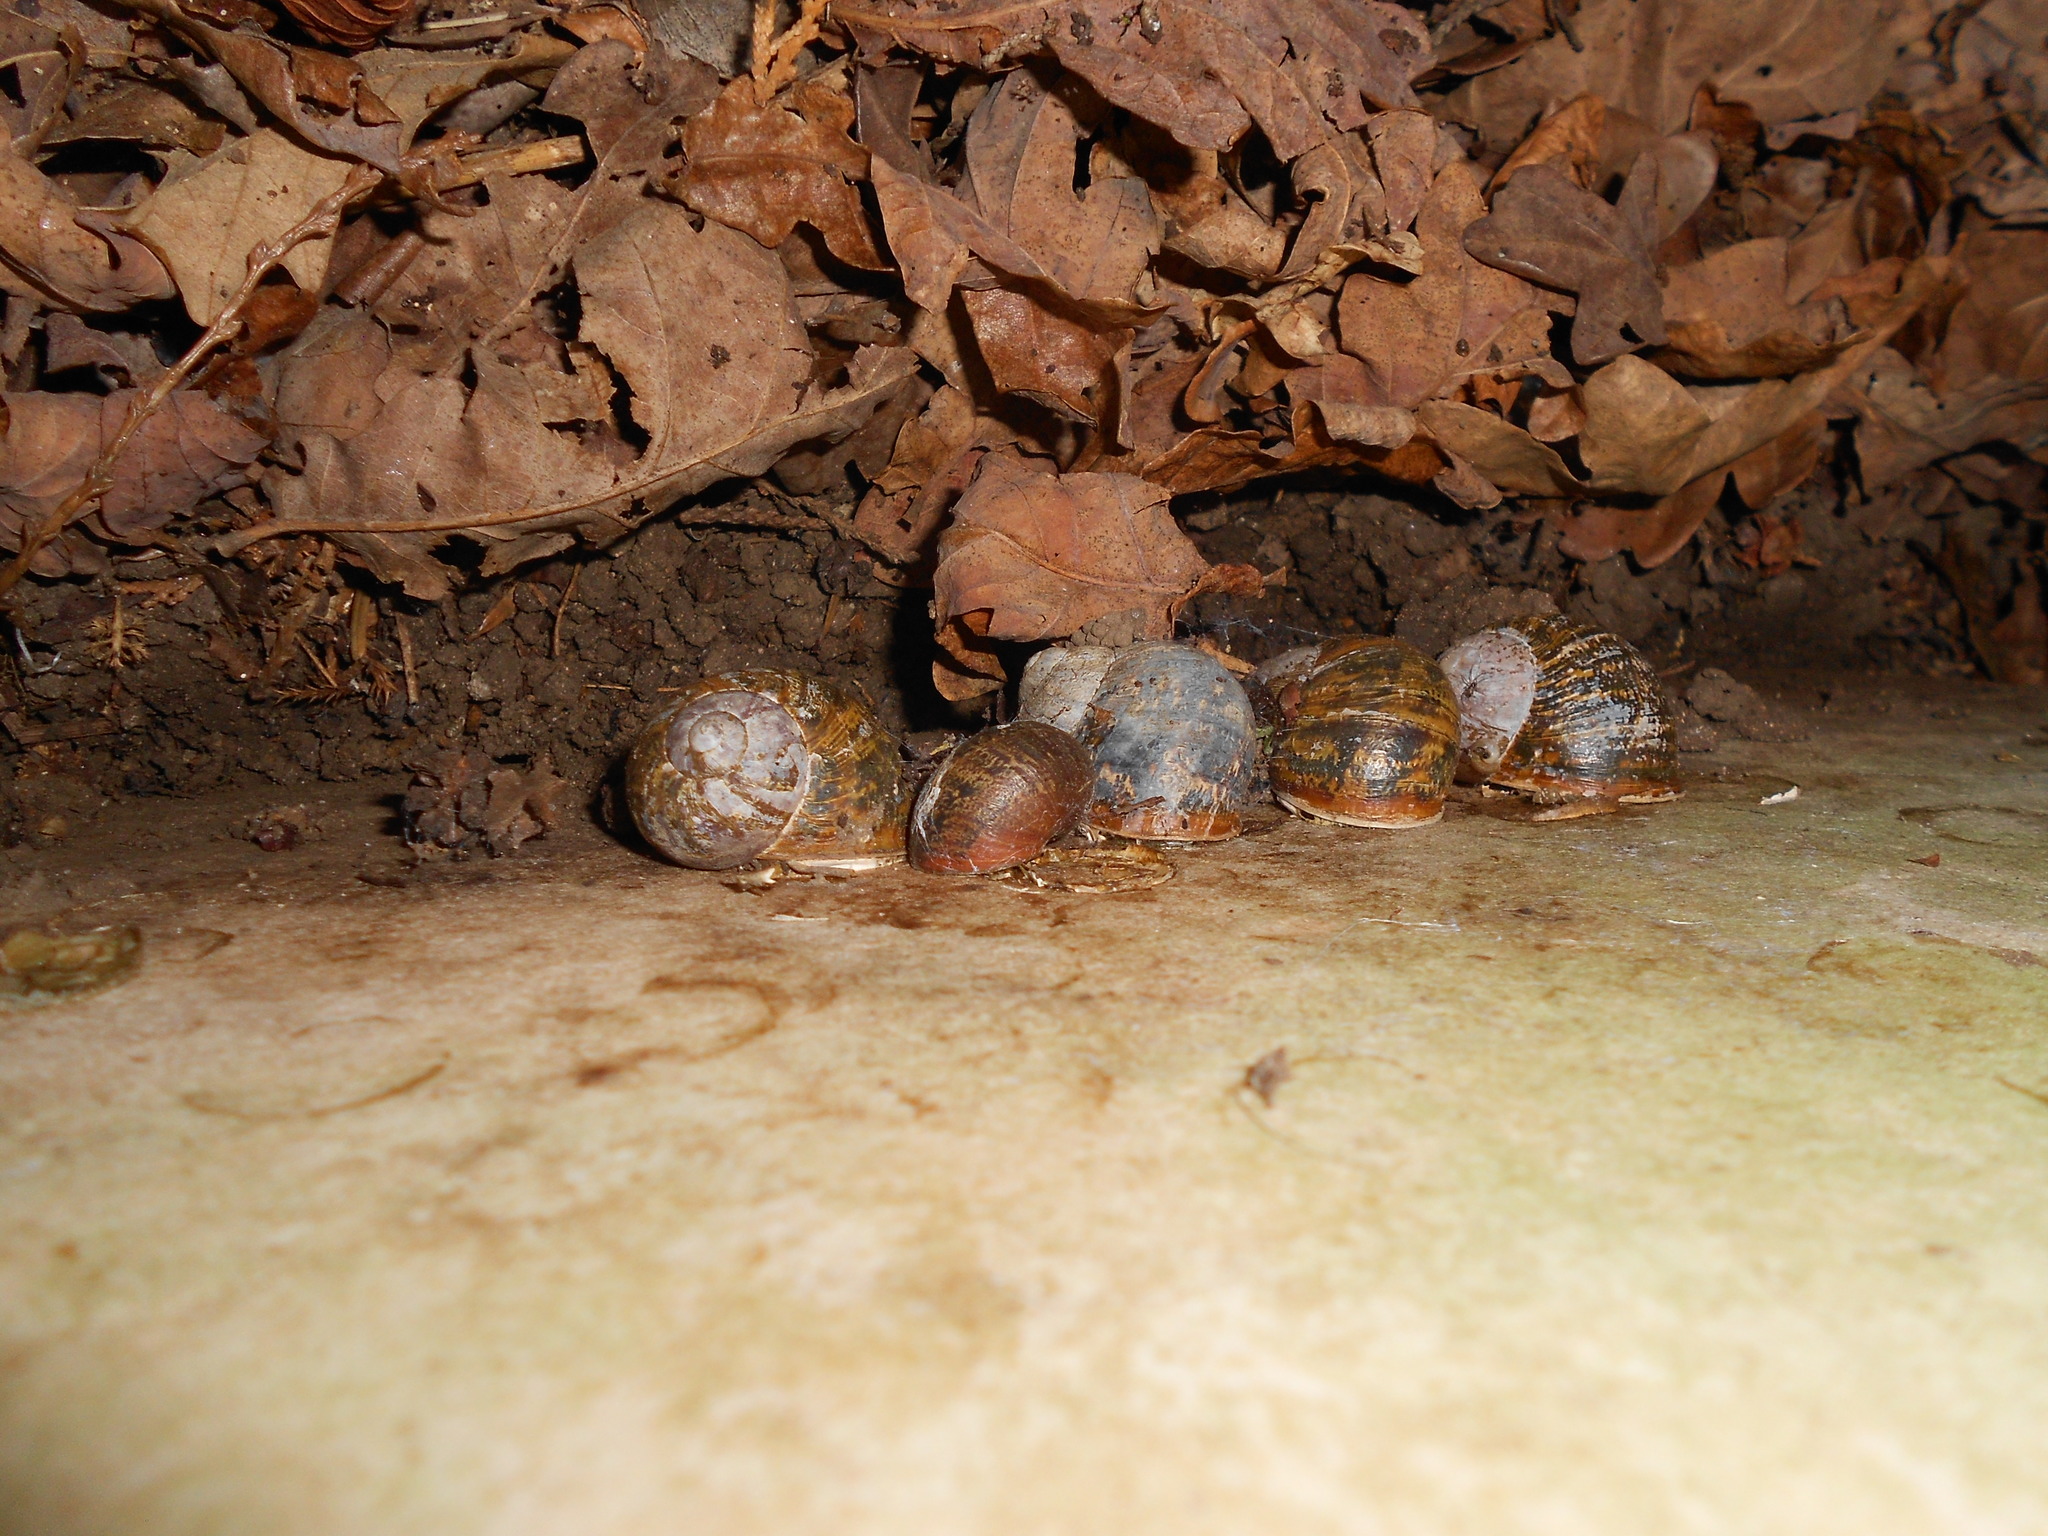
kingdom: Animalia
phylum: Mollusca
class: Gastropoda
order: Stylommatophora
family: Helicidae
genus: Cornu
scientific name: Cornu aspersum
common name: Brown garden snail
